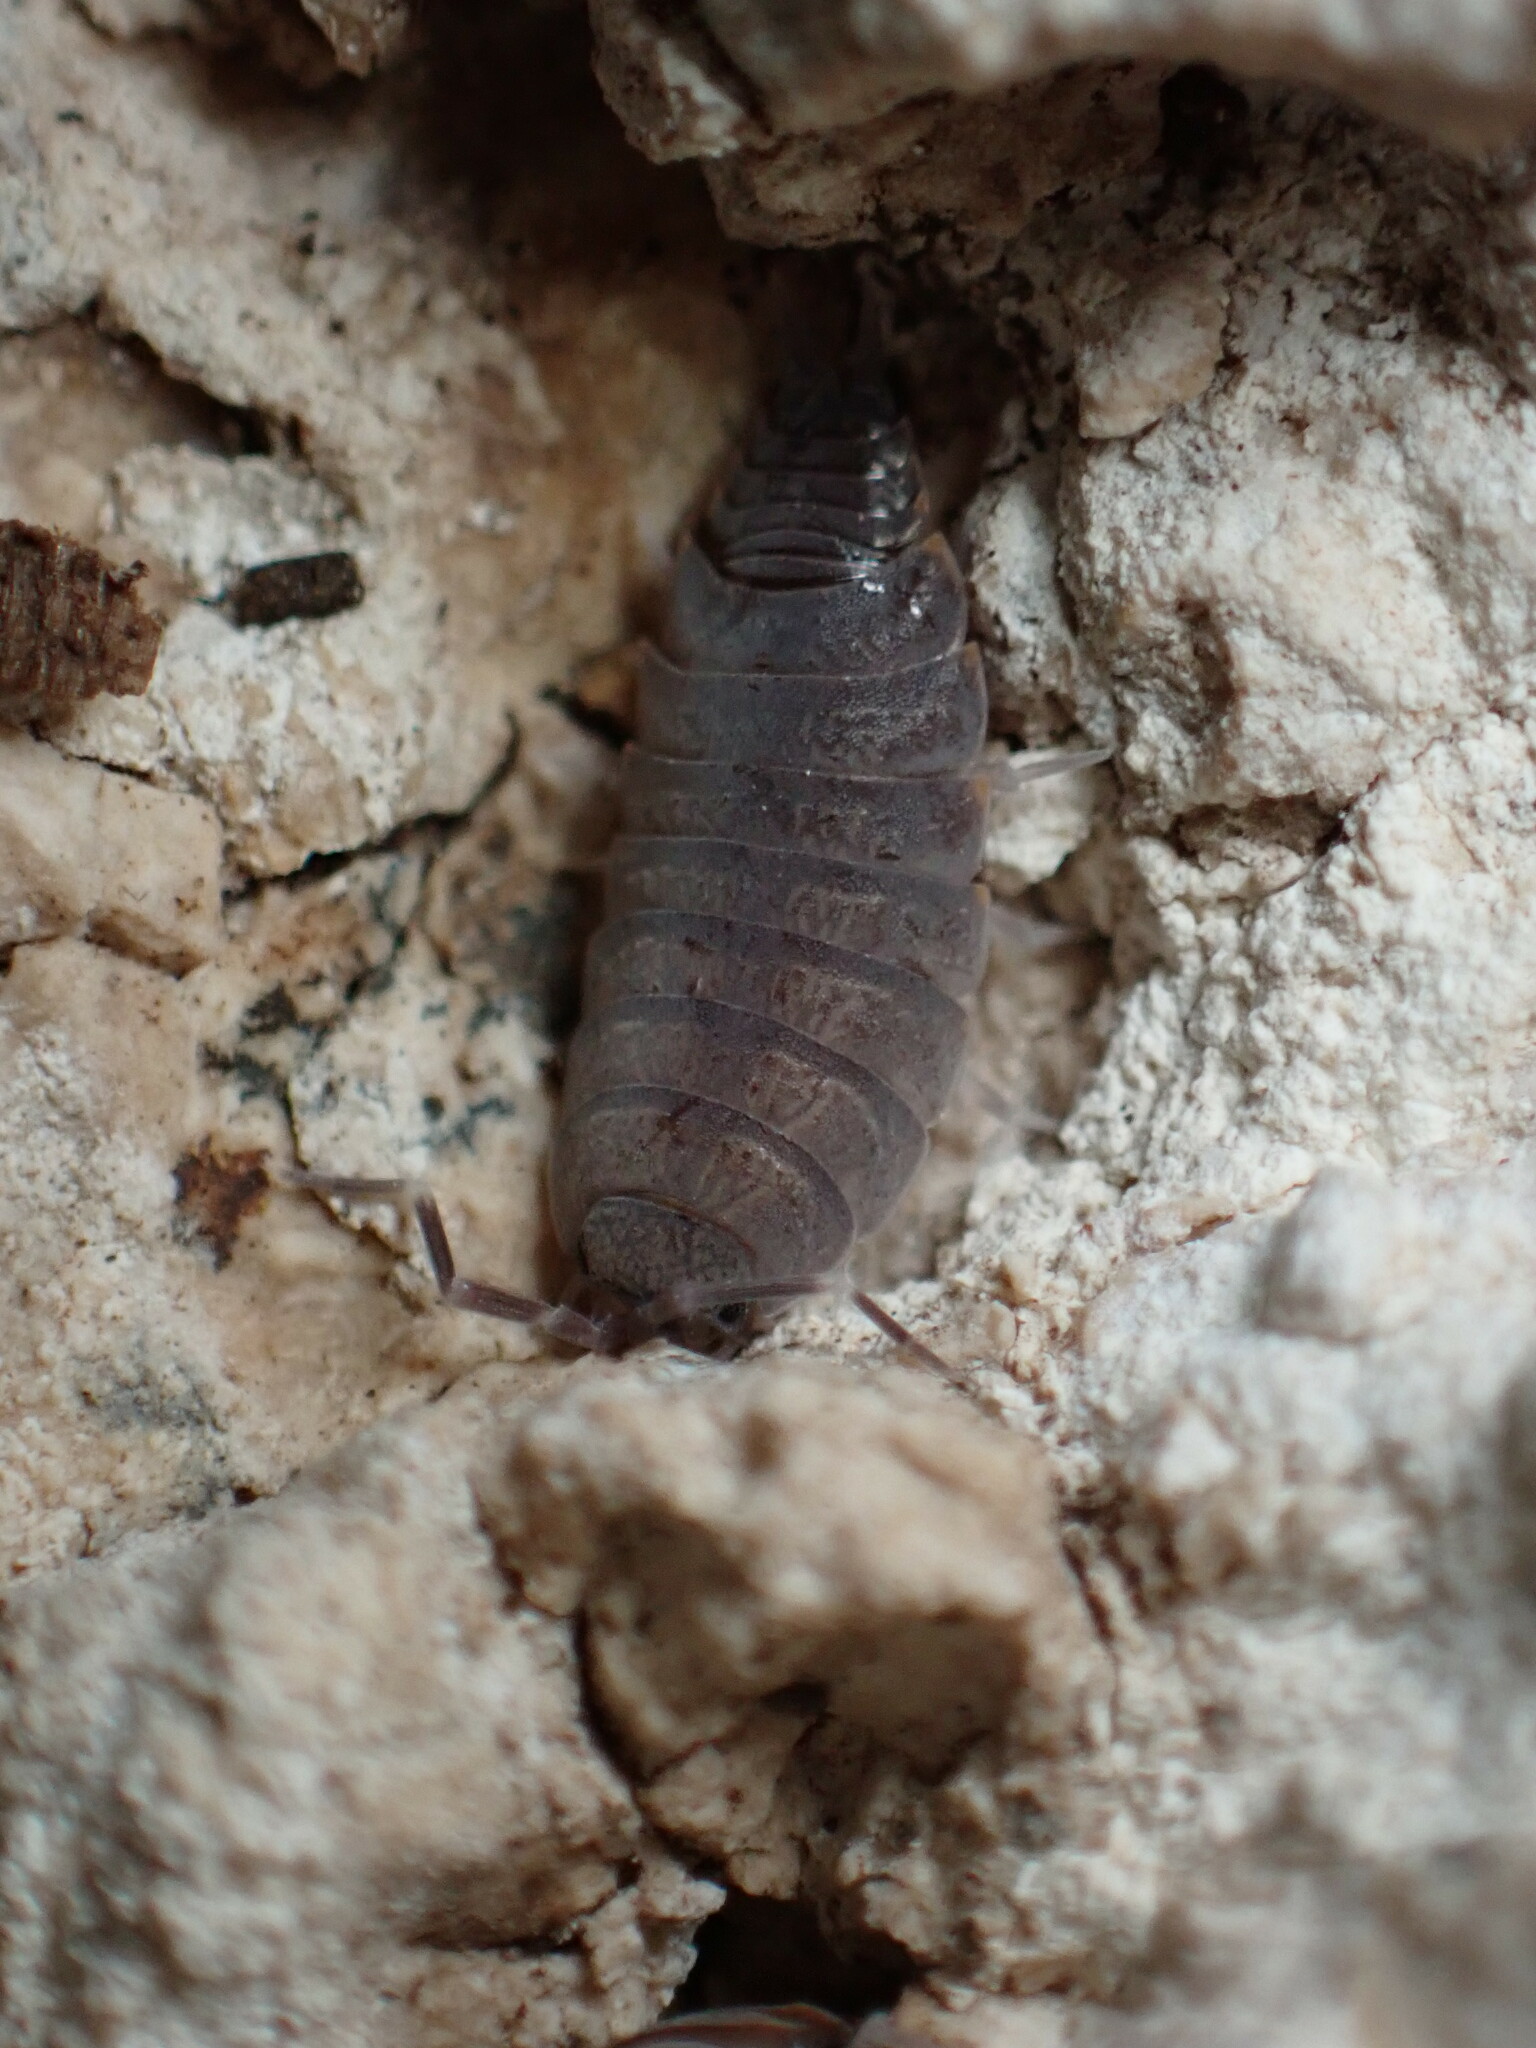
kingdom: Animalia
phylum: Arthropoda
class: Malacostraca
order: Isopoda
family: Porcellionidae
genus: Porcellionides
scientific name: Porcellionides pruinosus
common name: Plum woodlouse
